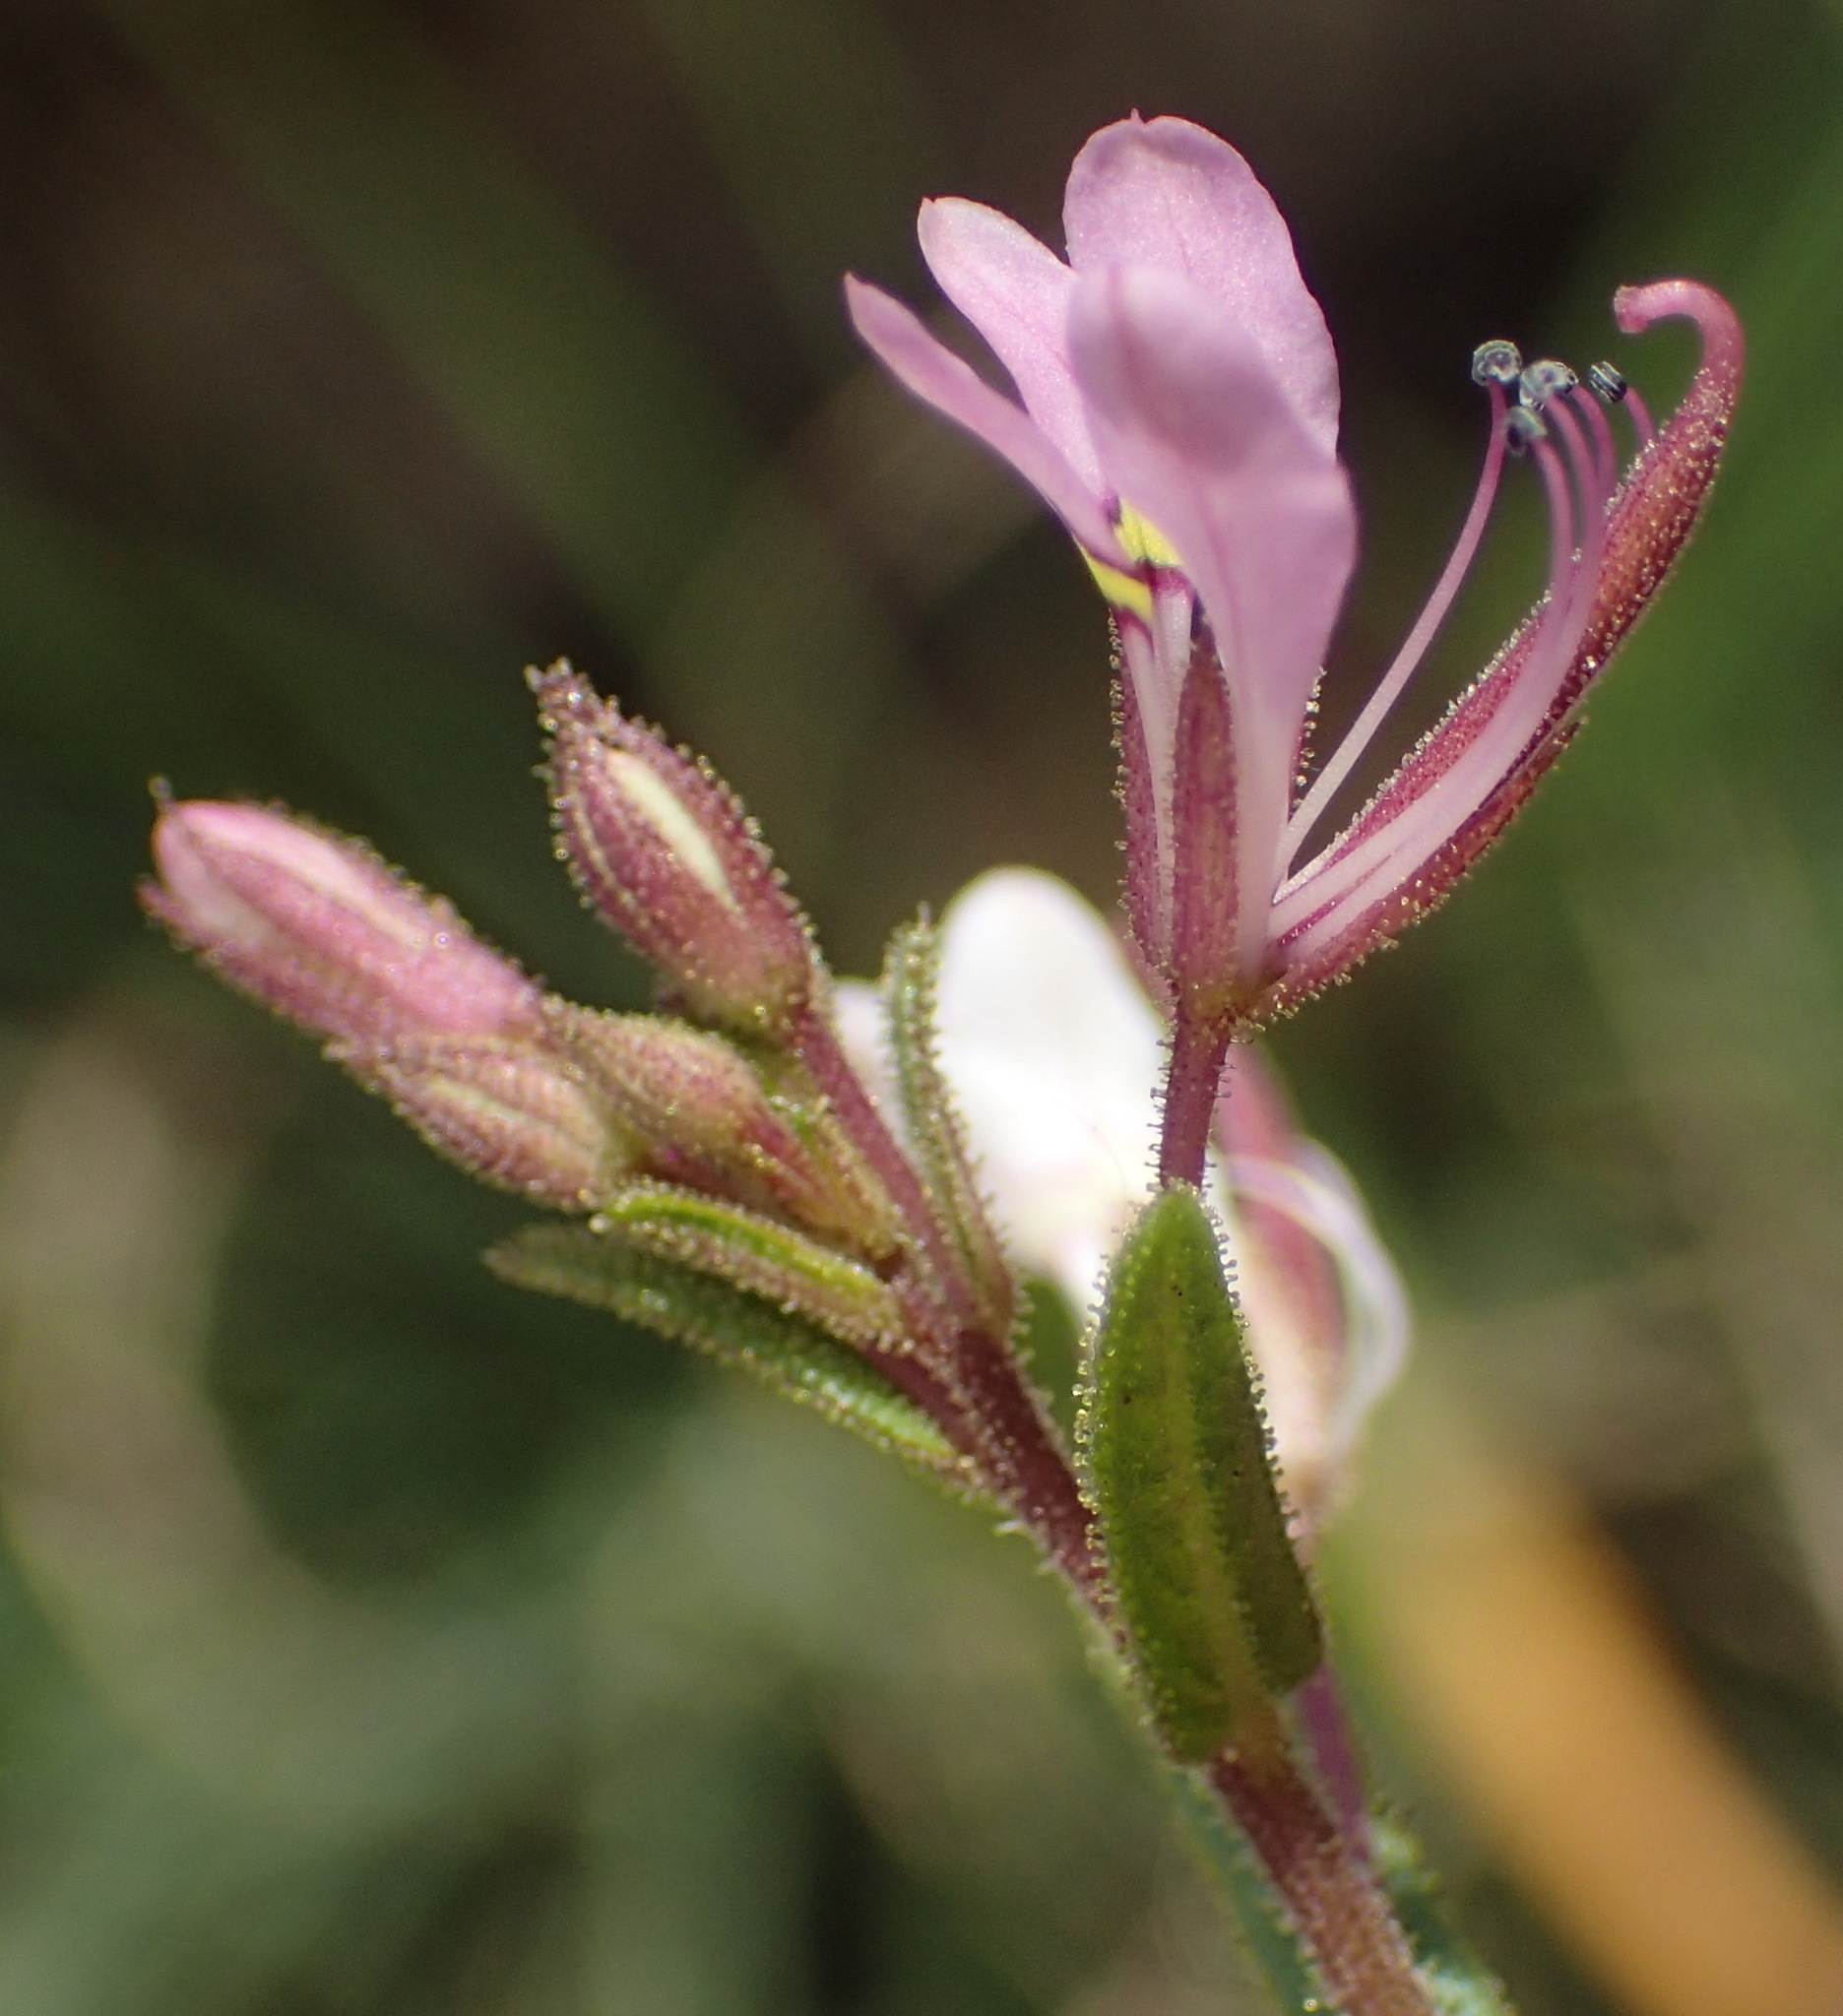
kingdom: Plantae
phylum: Tracheophyta
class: Magnoliopsida
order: Brassicales
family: Cleomaceae
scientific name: Cleomaceae
